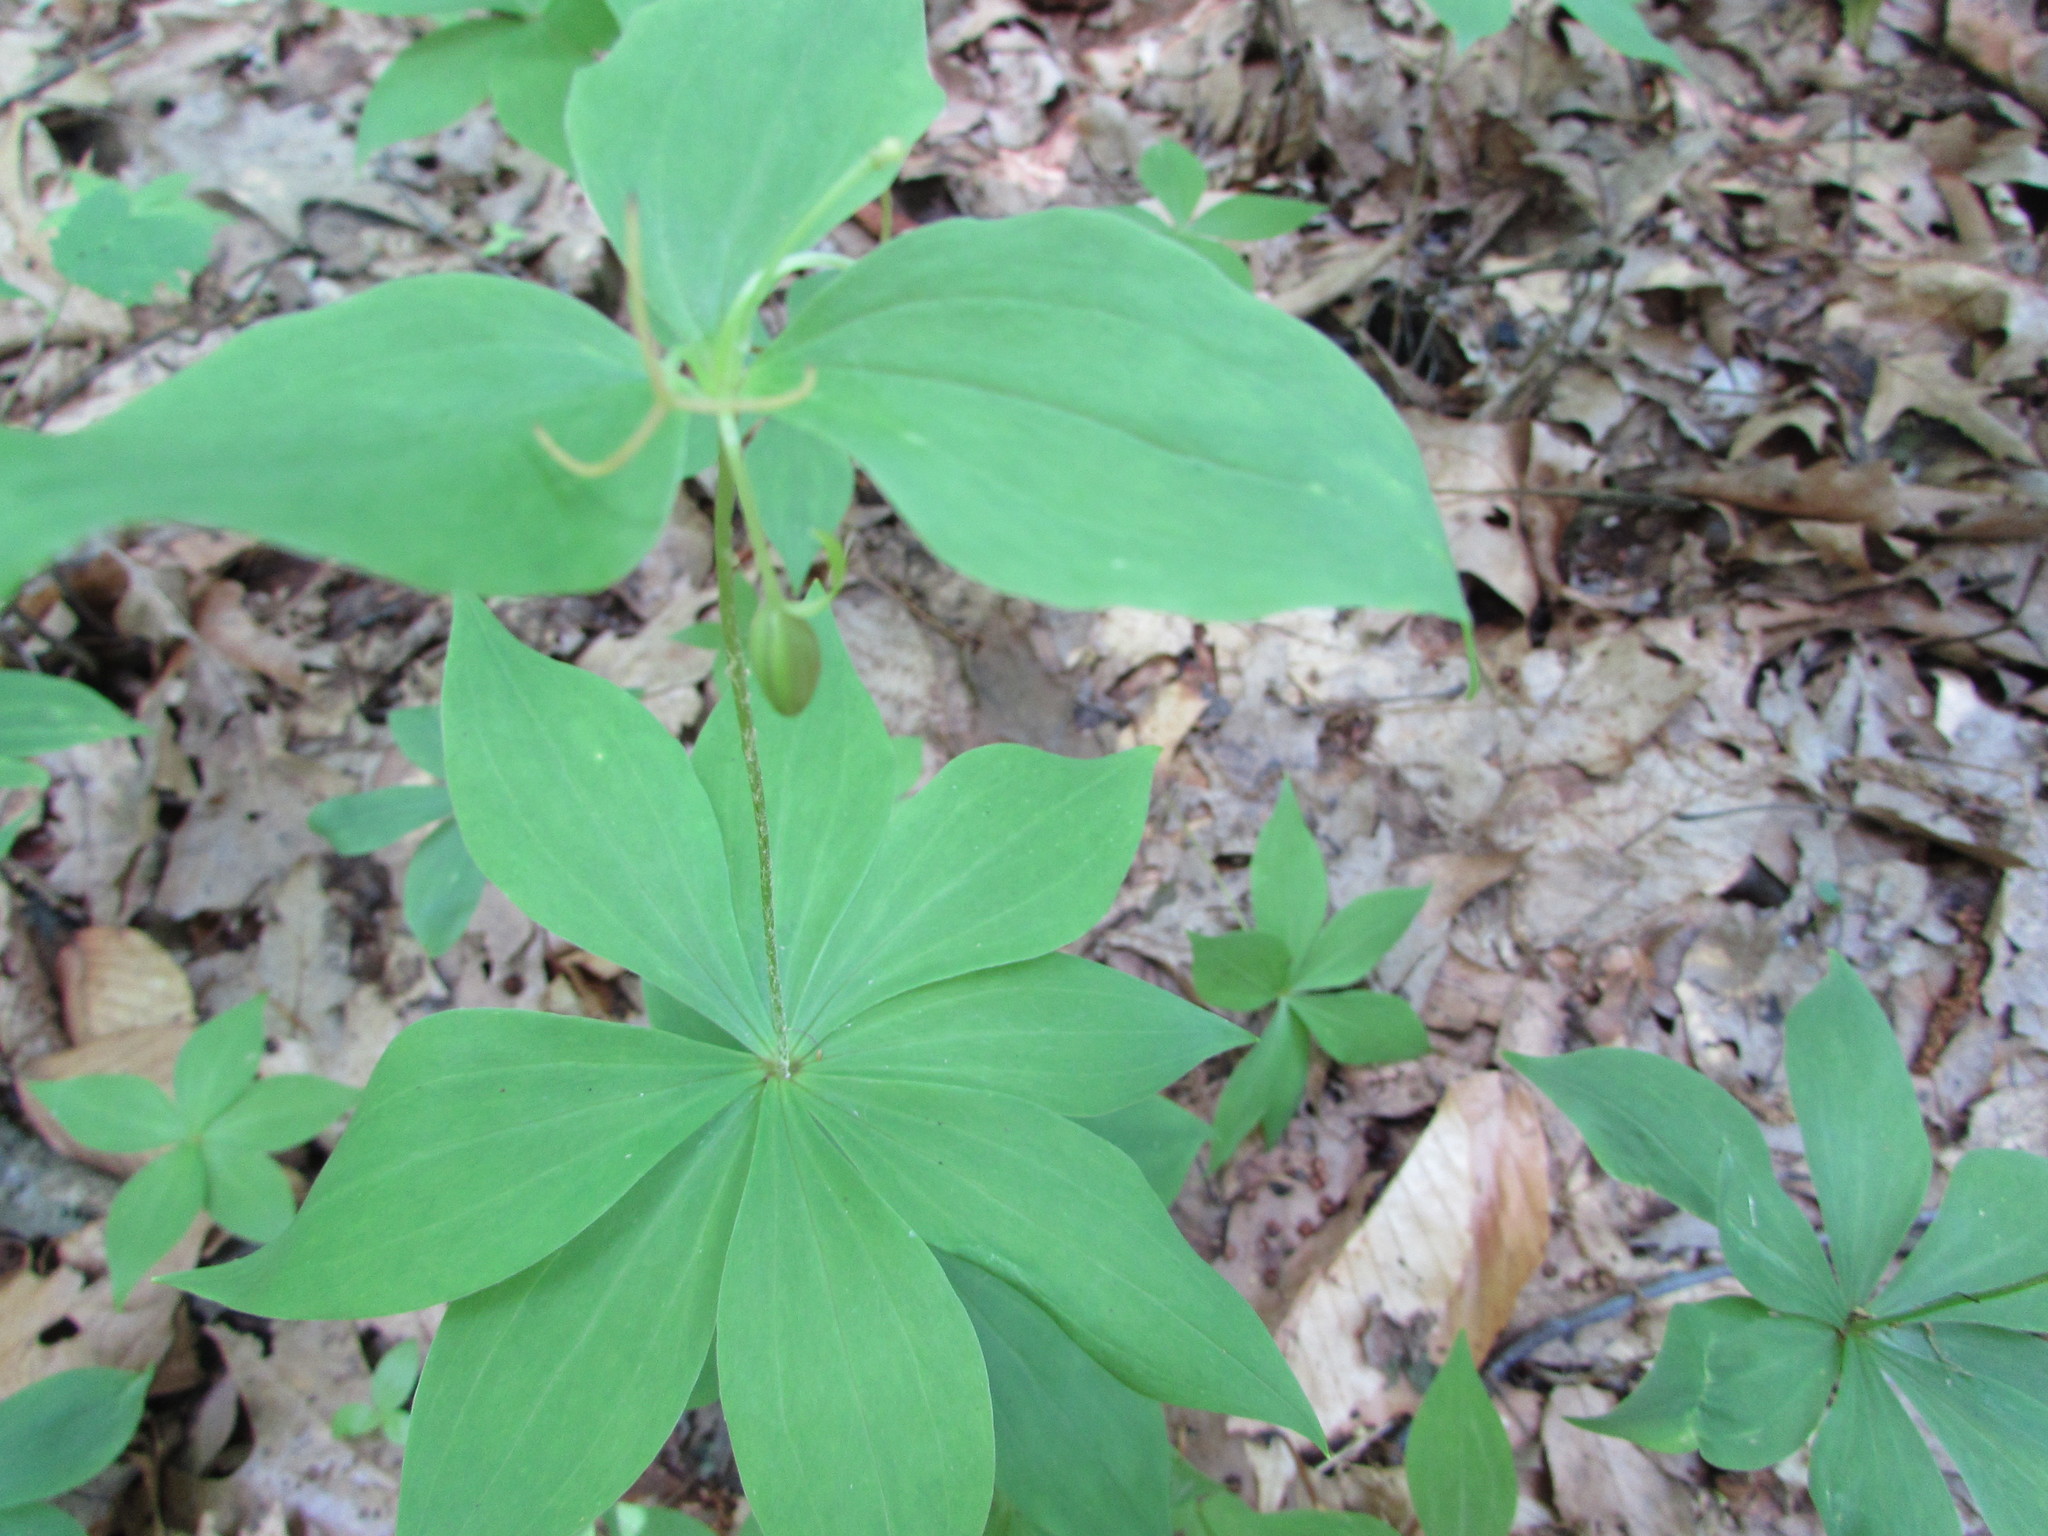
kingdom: Plantae
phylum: Tracheophyta
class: Liliopsida
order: Liliales
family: Liliaceae
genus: Medeola
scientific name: Medeola virginiana
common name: Indian cucumber-root
